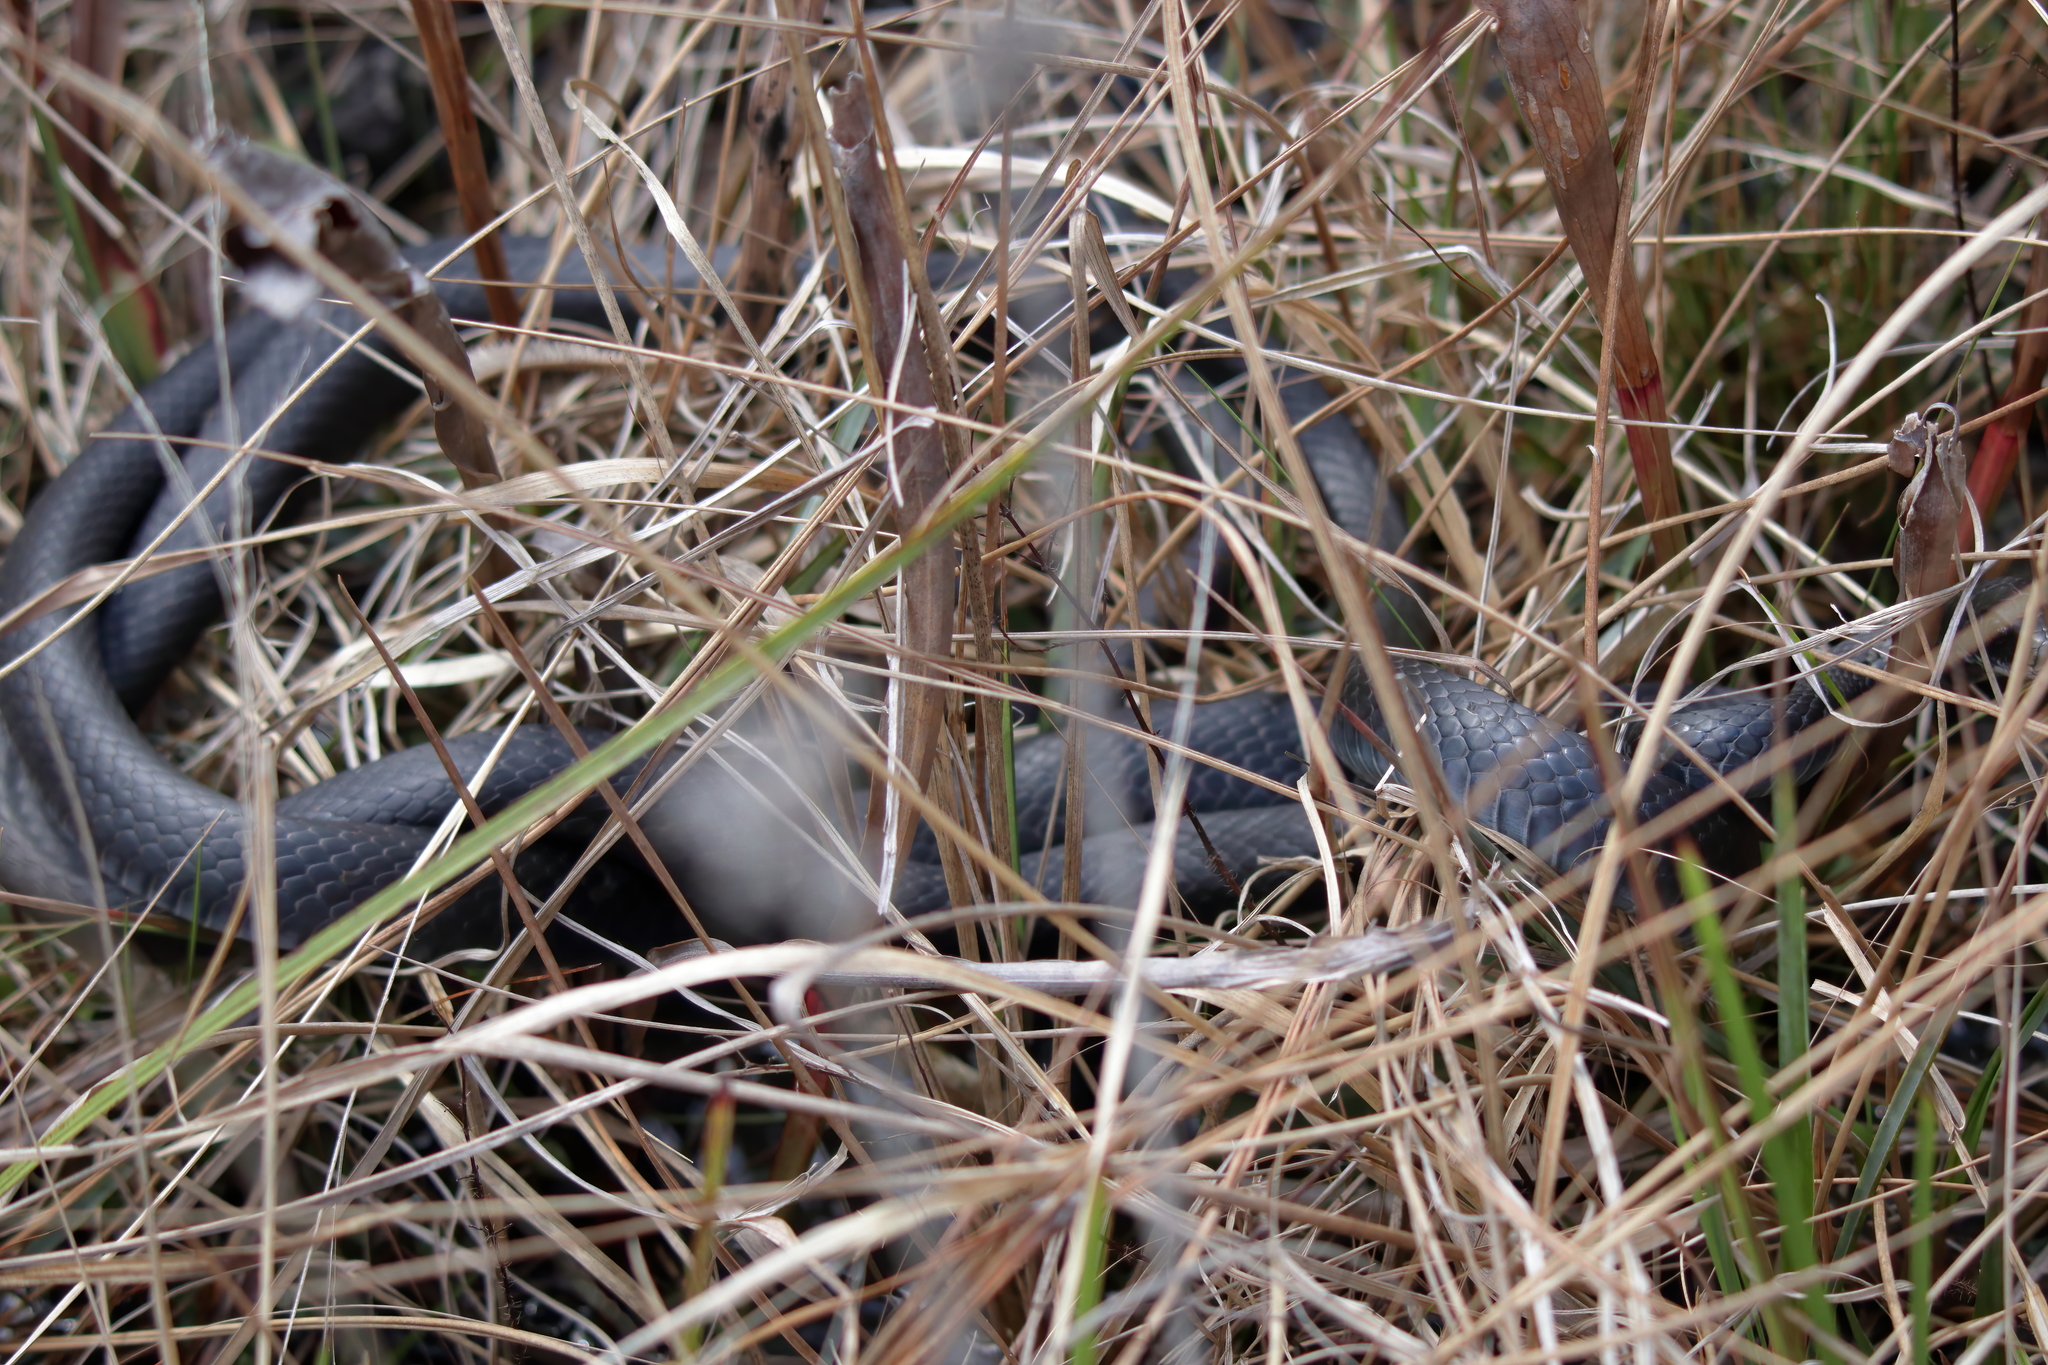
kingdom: Animalia
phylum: Chordata
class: Squamata
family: Colubridae
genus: Coluber
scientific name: Coluber constrictor
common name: Eastern racer
